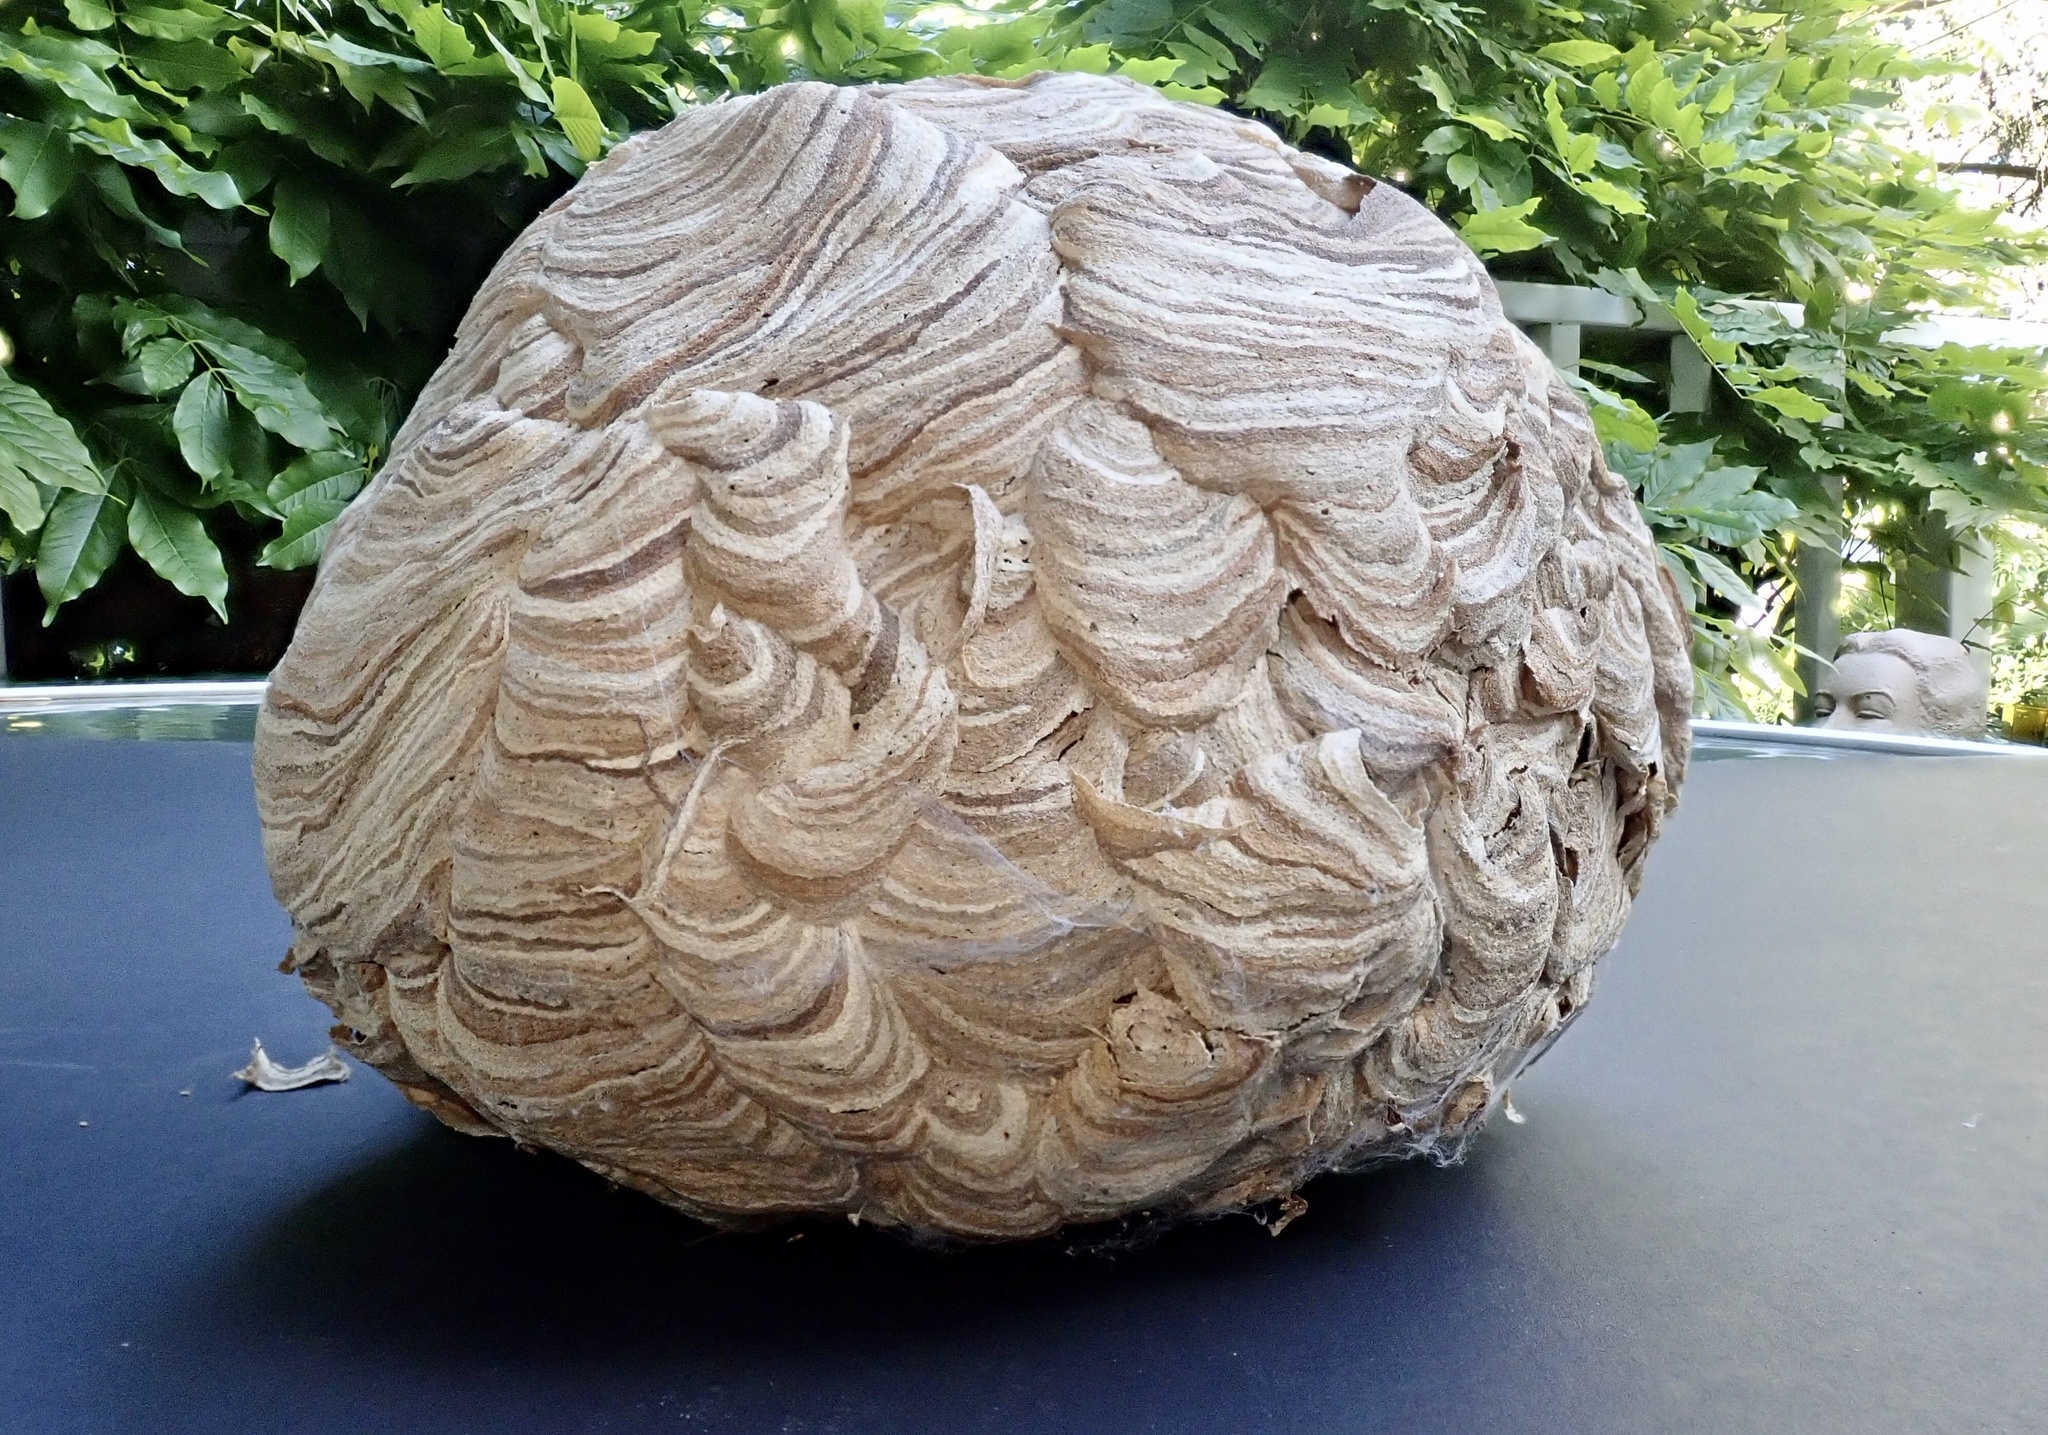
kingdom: Animalia
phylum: Arthropoda
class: Insecta
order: Hymenoptera
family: Vespidae
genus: Vespula
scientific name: Vespula
